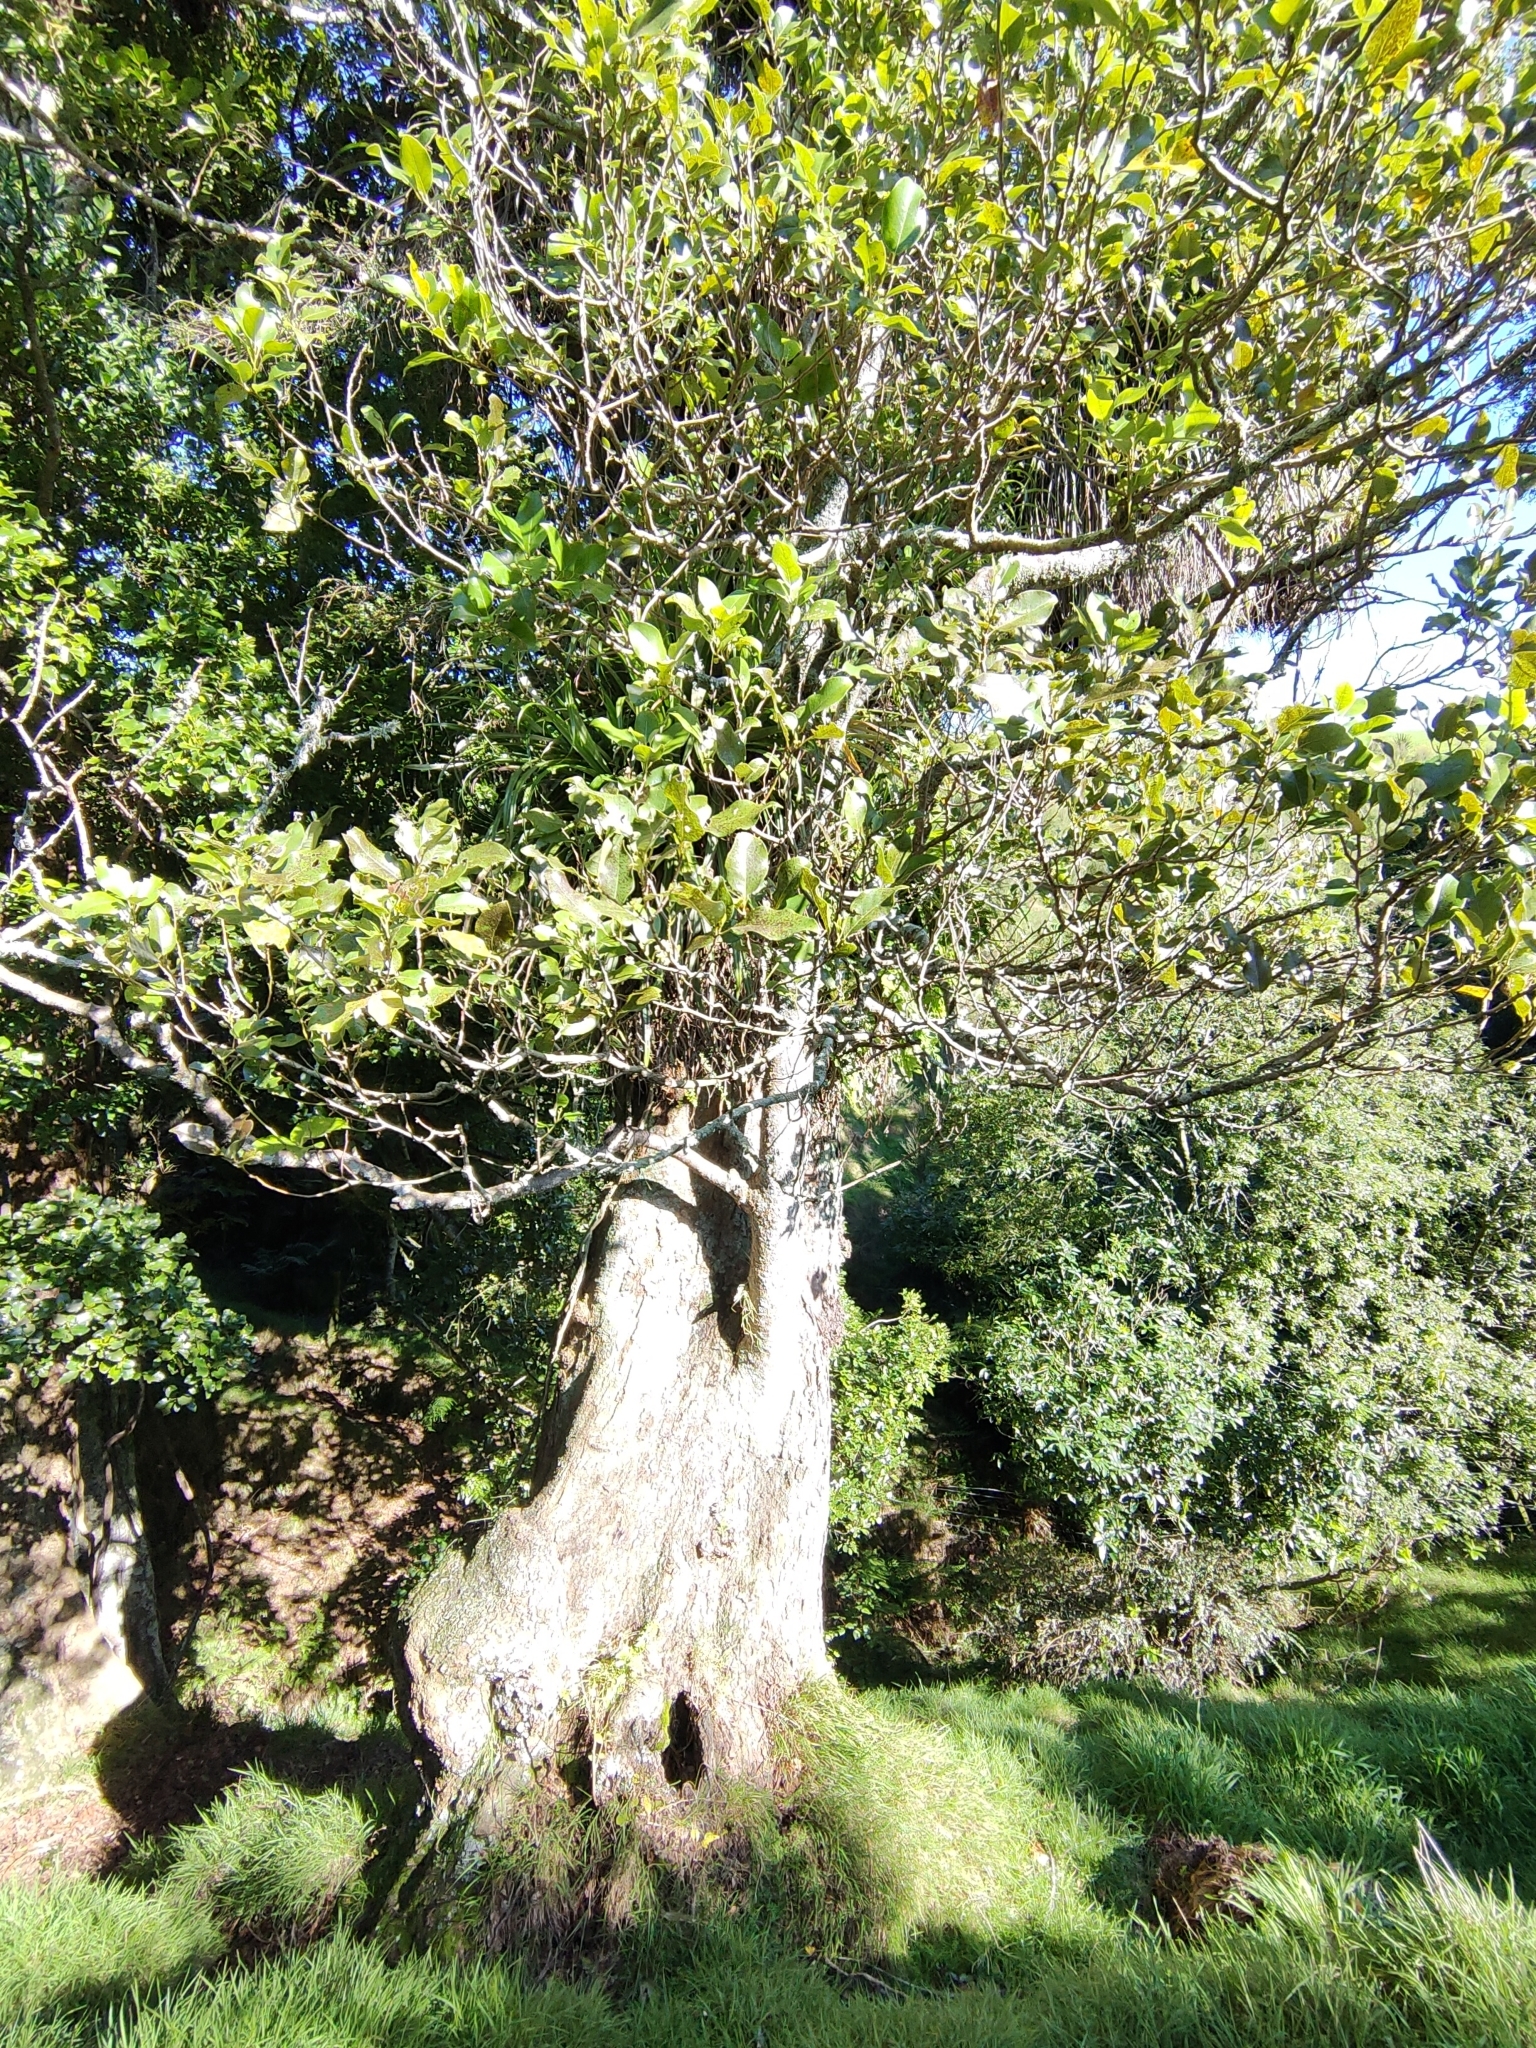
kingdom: Plantae
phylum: Tracheophyta
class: Magnoliopsida
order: Laurales
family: Lauraceae
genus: Litsea
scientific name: Litsea calicaris
